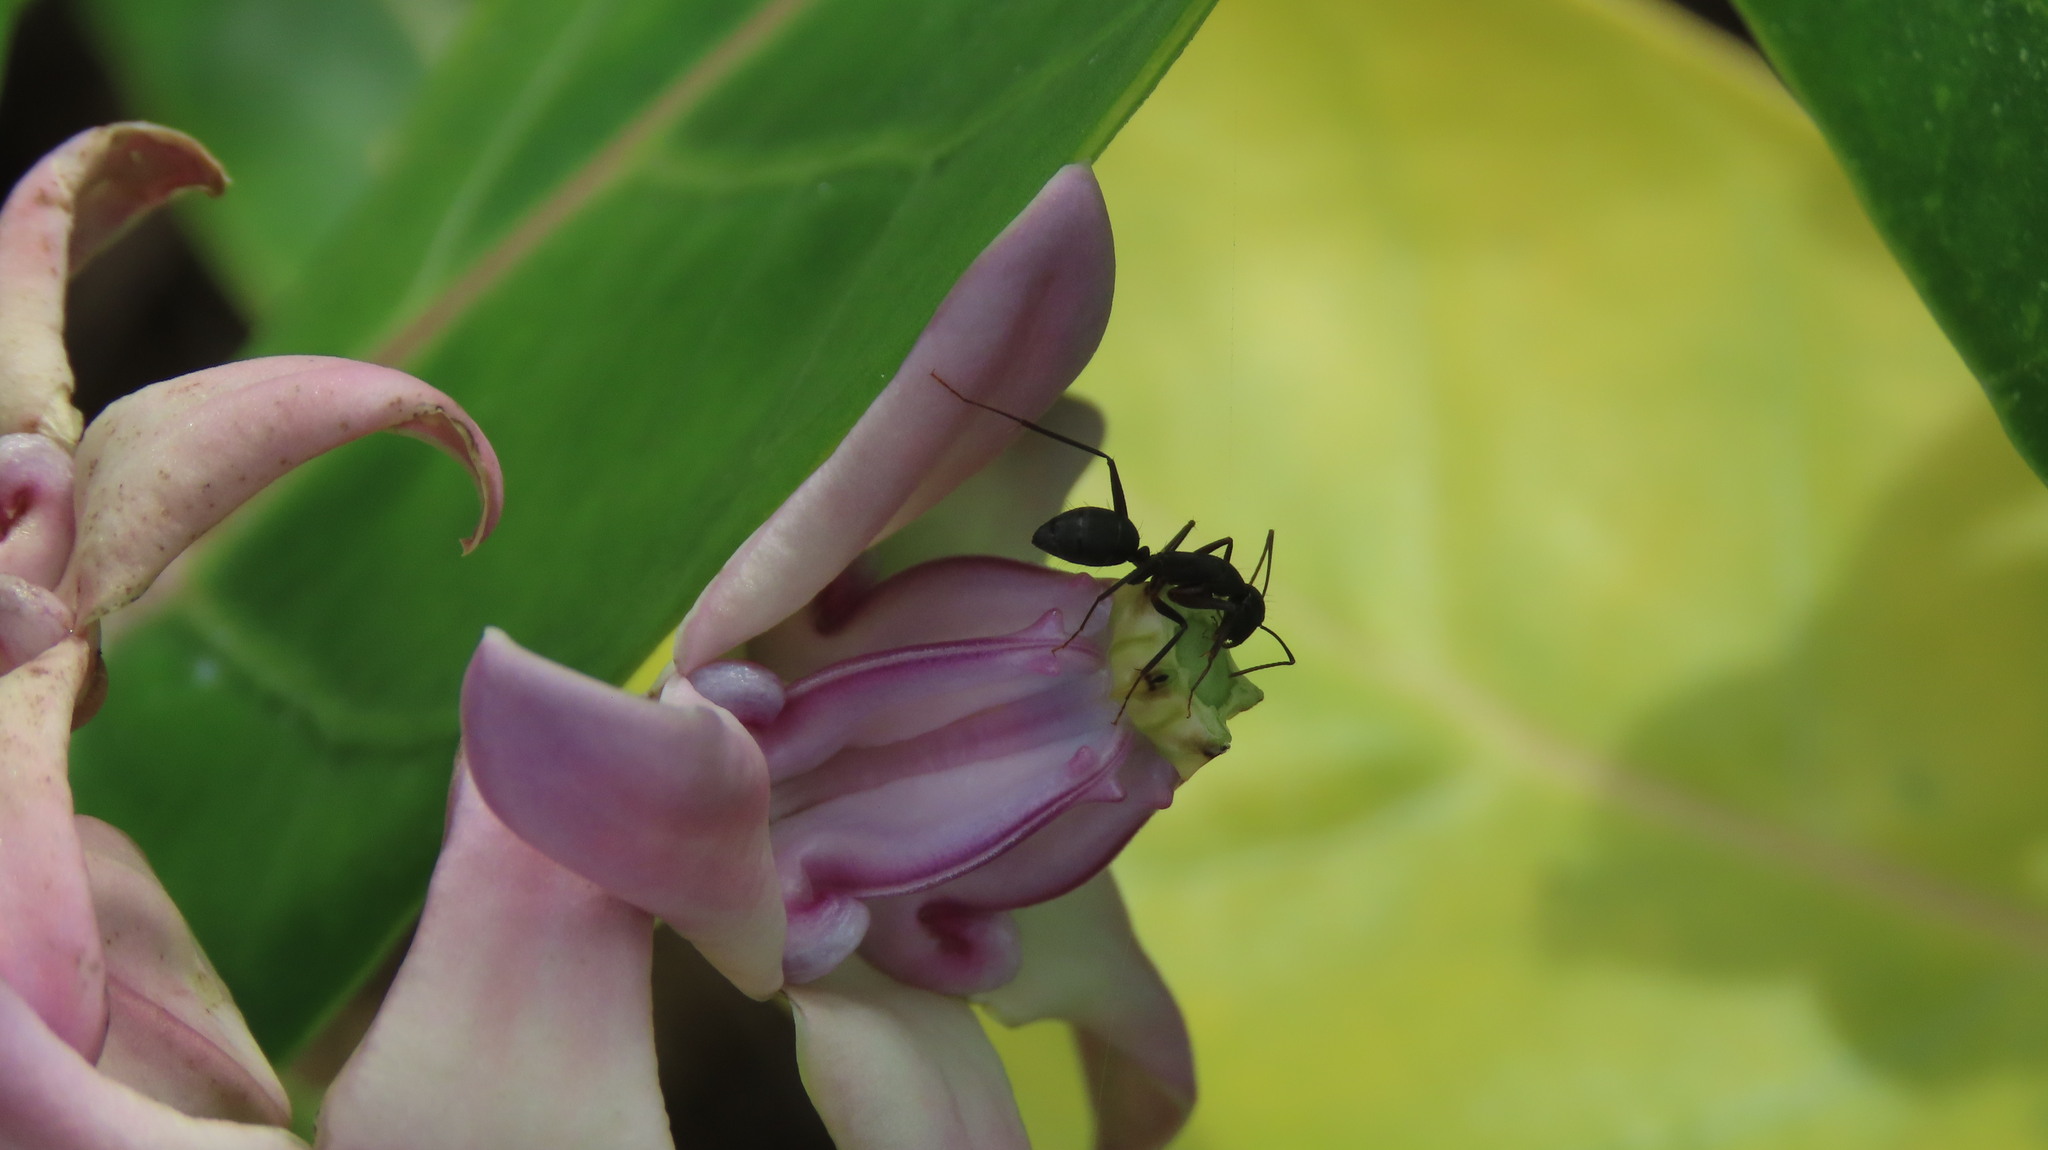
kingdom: Animalia
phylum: Arthropoda
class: Insecta
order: Hymenoptera
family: Formicidae
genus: Camponotus
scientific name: Camponotus compressus
